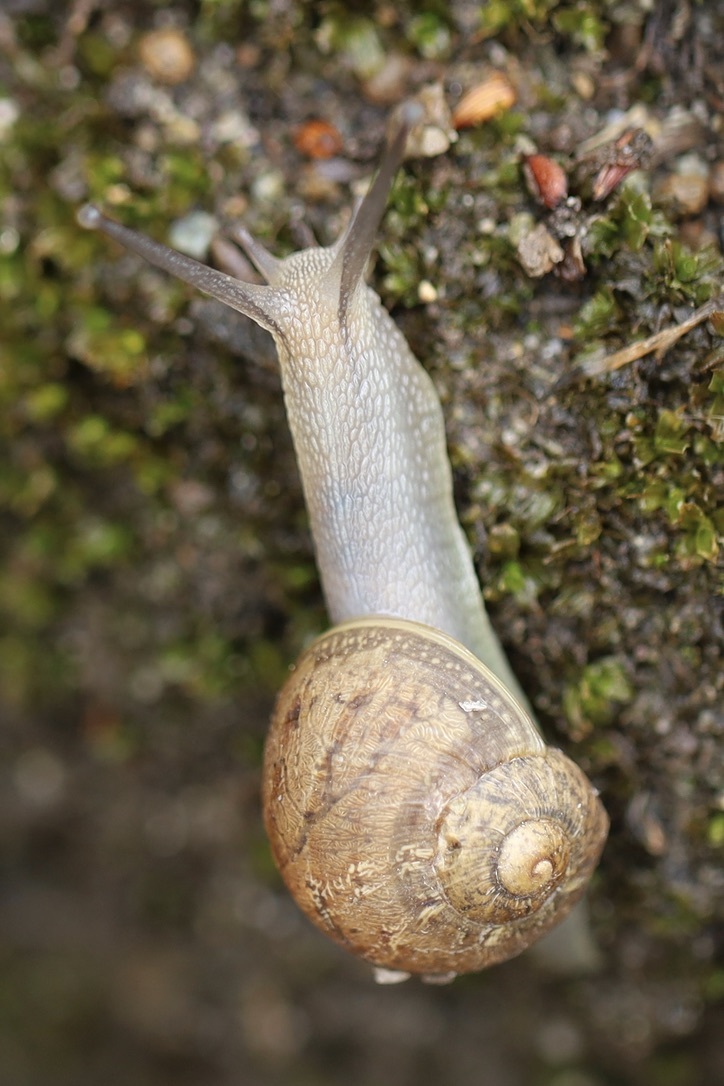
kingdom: Animalia
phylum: Mollusca
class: Gastropoda
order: Stylommatophora
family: Helicidae
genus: Cornu
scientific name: Cornu aspersum
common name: Brown garden snail
